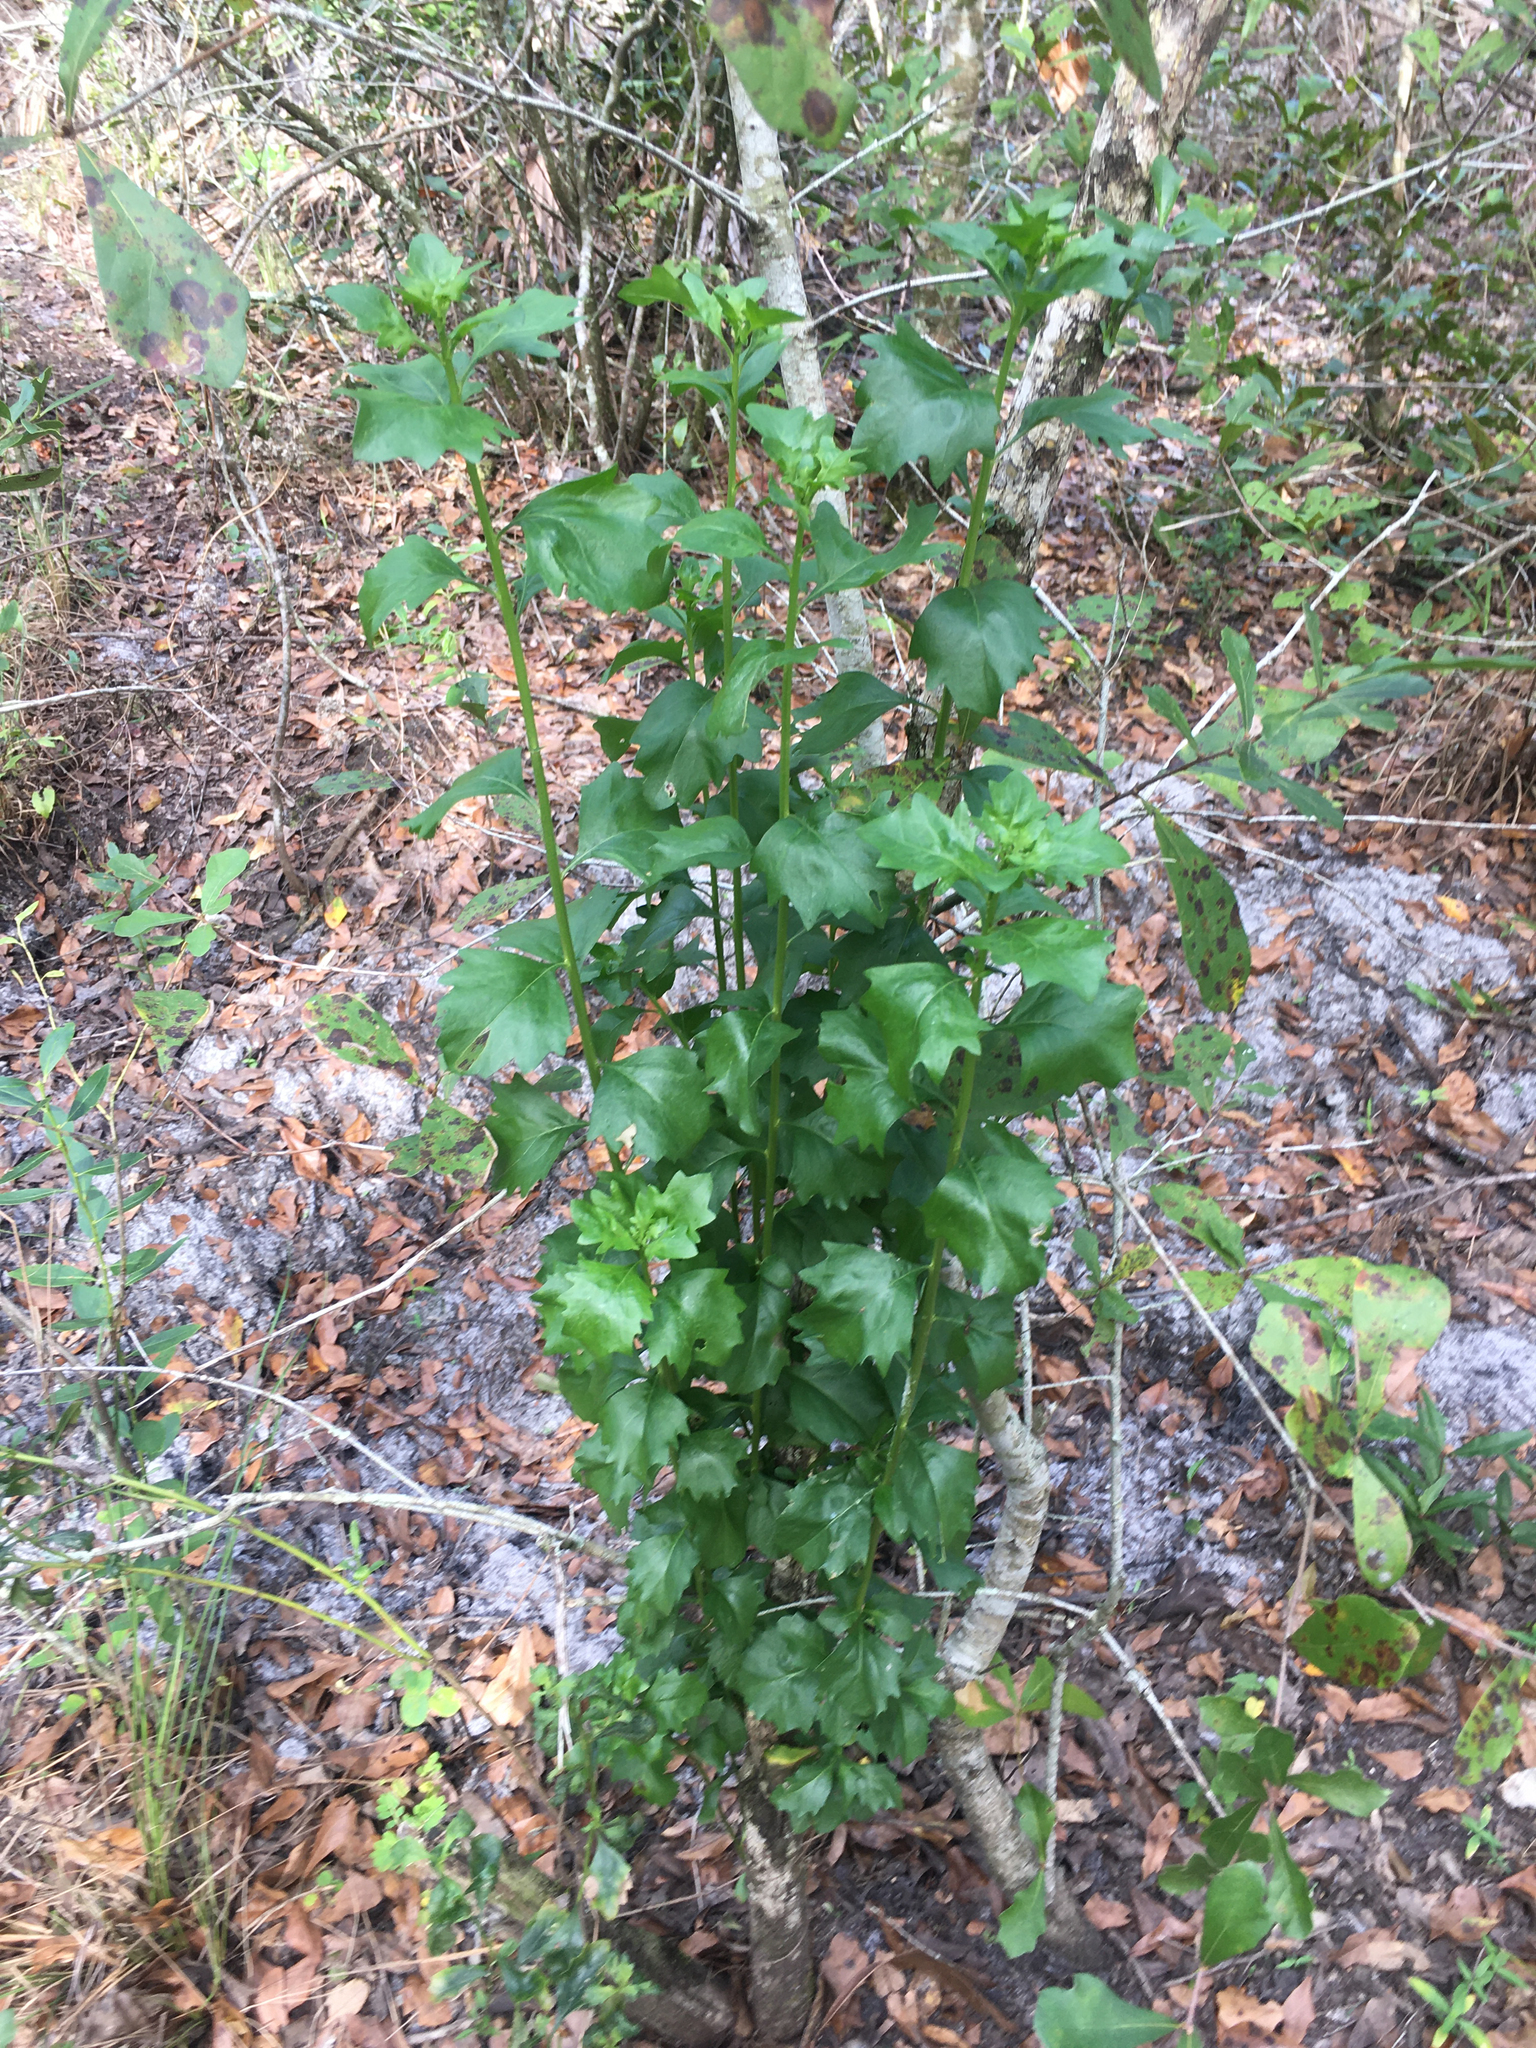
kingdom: Plantae
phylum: Tracheophyta
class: Magnoliopsida
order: Asterales
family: Asteraceae
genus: Baccharis
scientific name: Baccharis halimifolia
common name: Eastern baccharis
